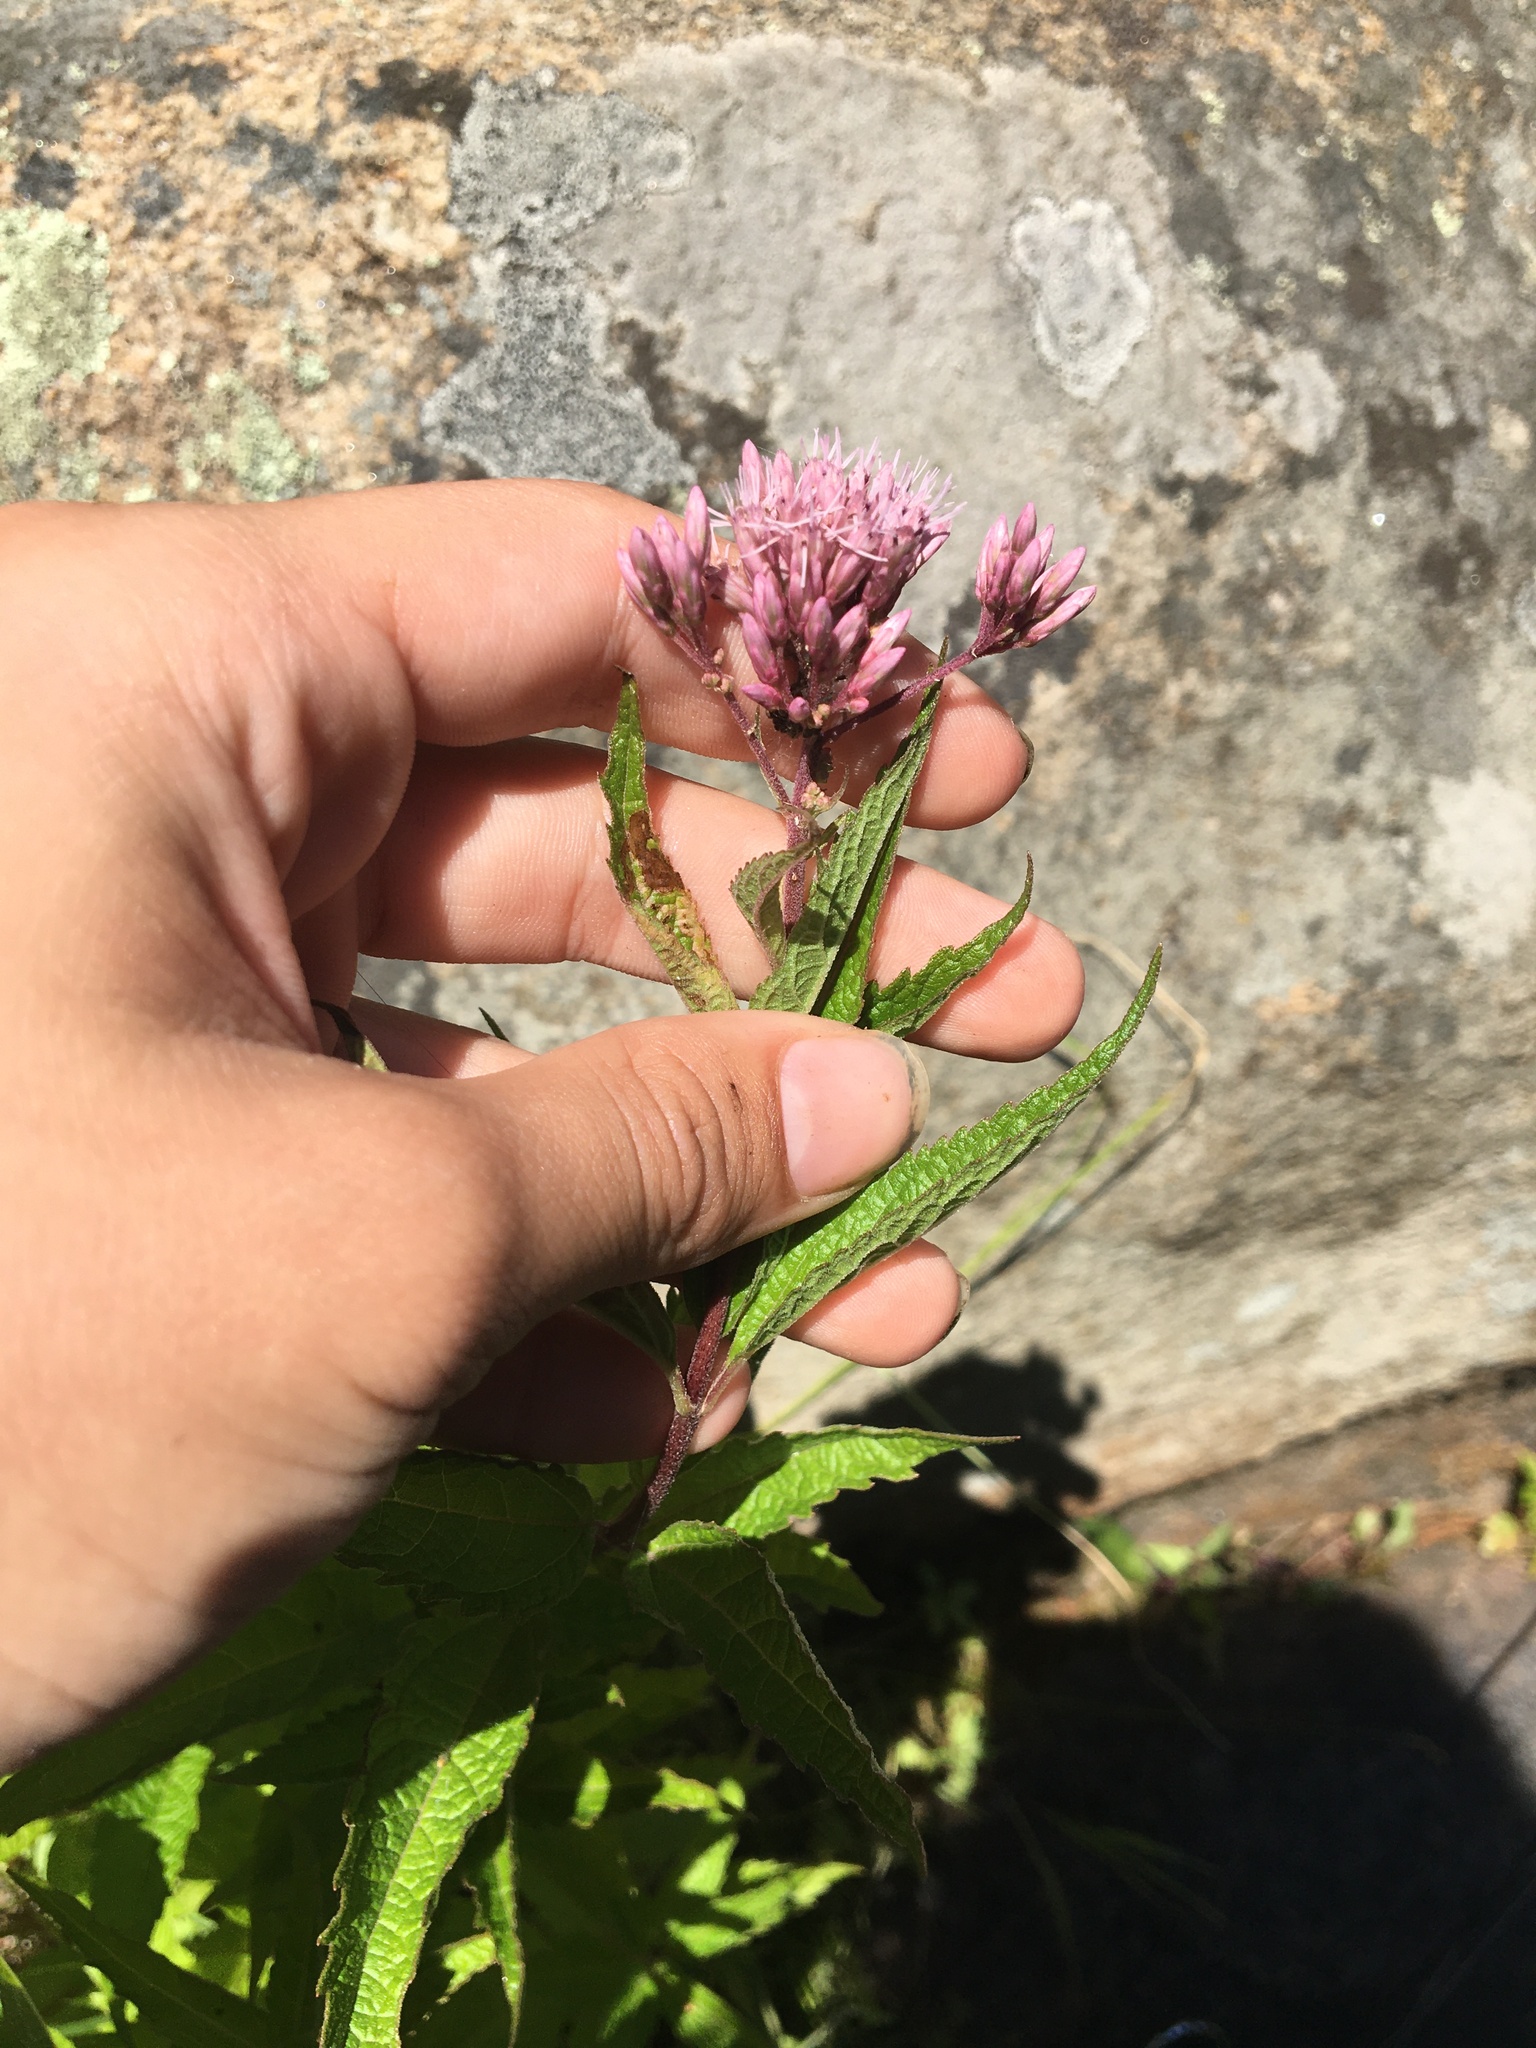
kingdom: Plantae
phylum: Tracheophyta
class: Magnoliopsida
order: Asterales
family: Asteraceae
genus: Eutrochium
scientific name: Eutrochium dubium
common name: Coastal plain joe pye weed
